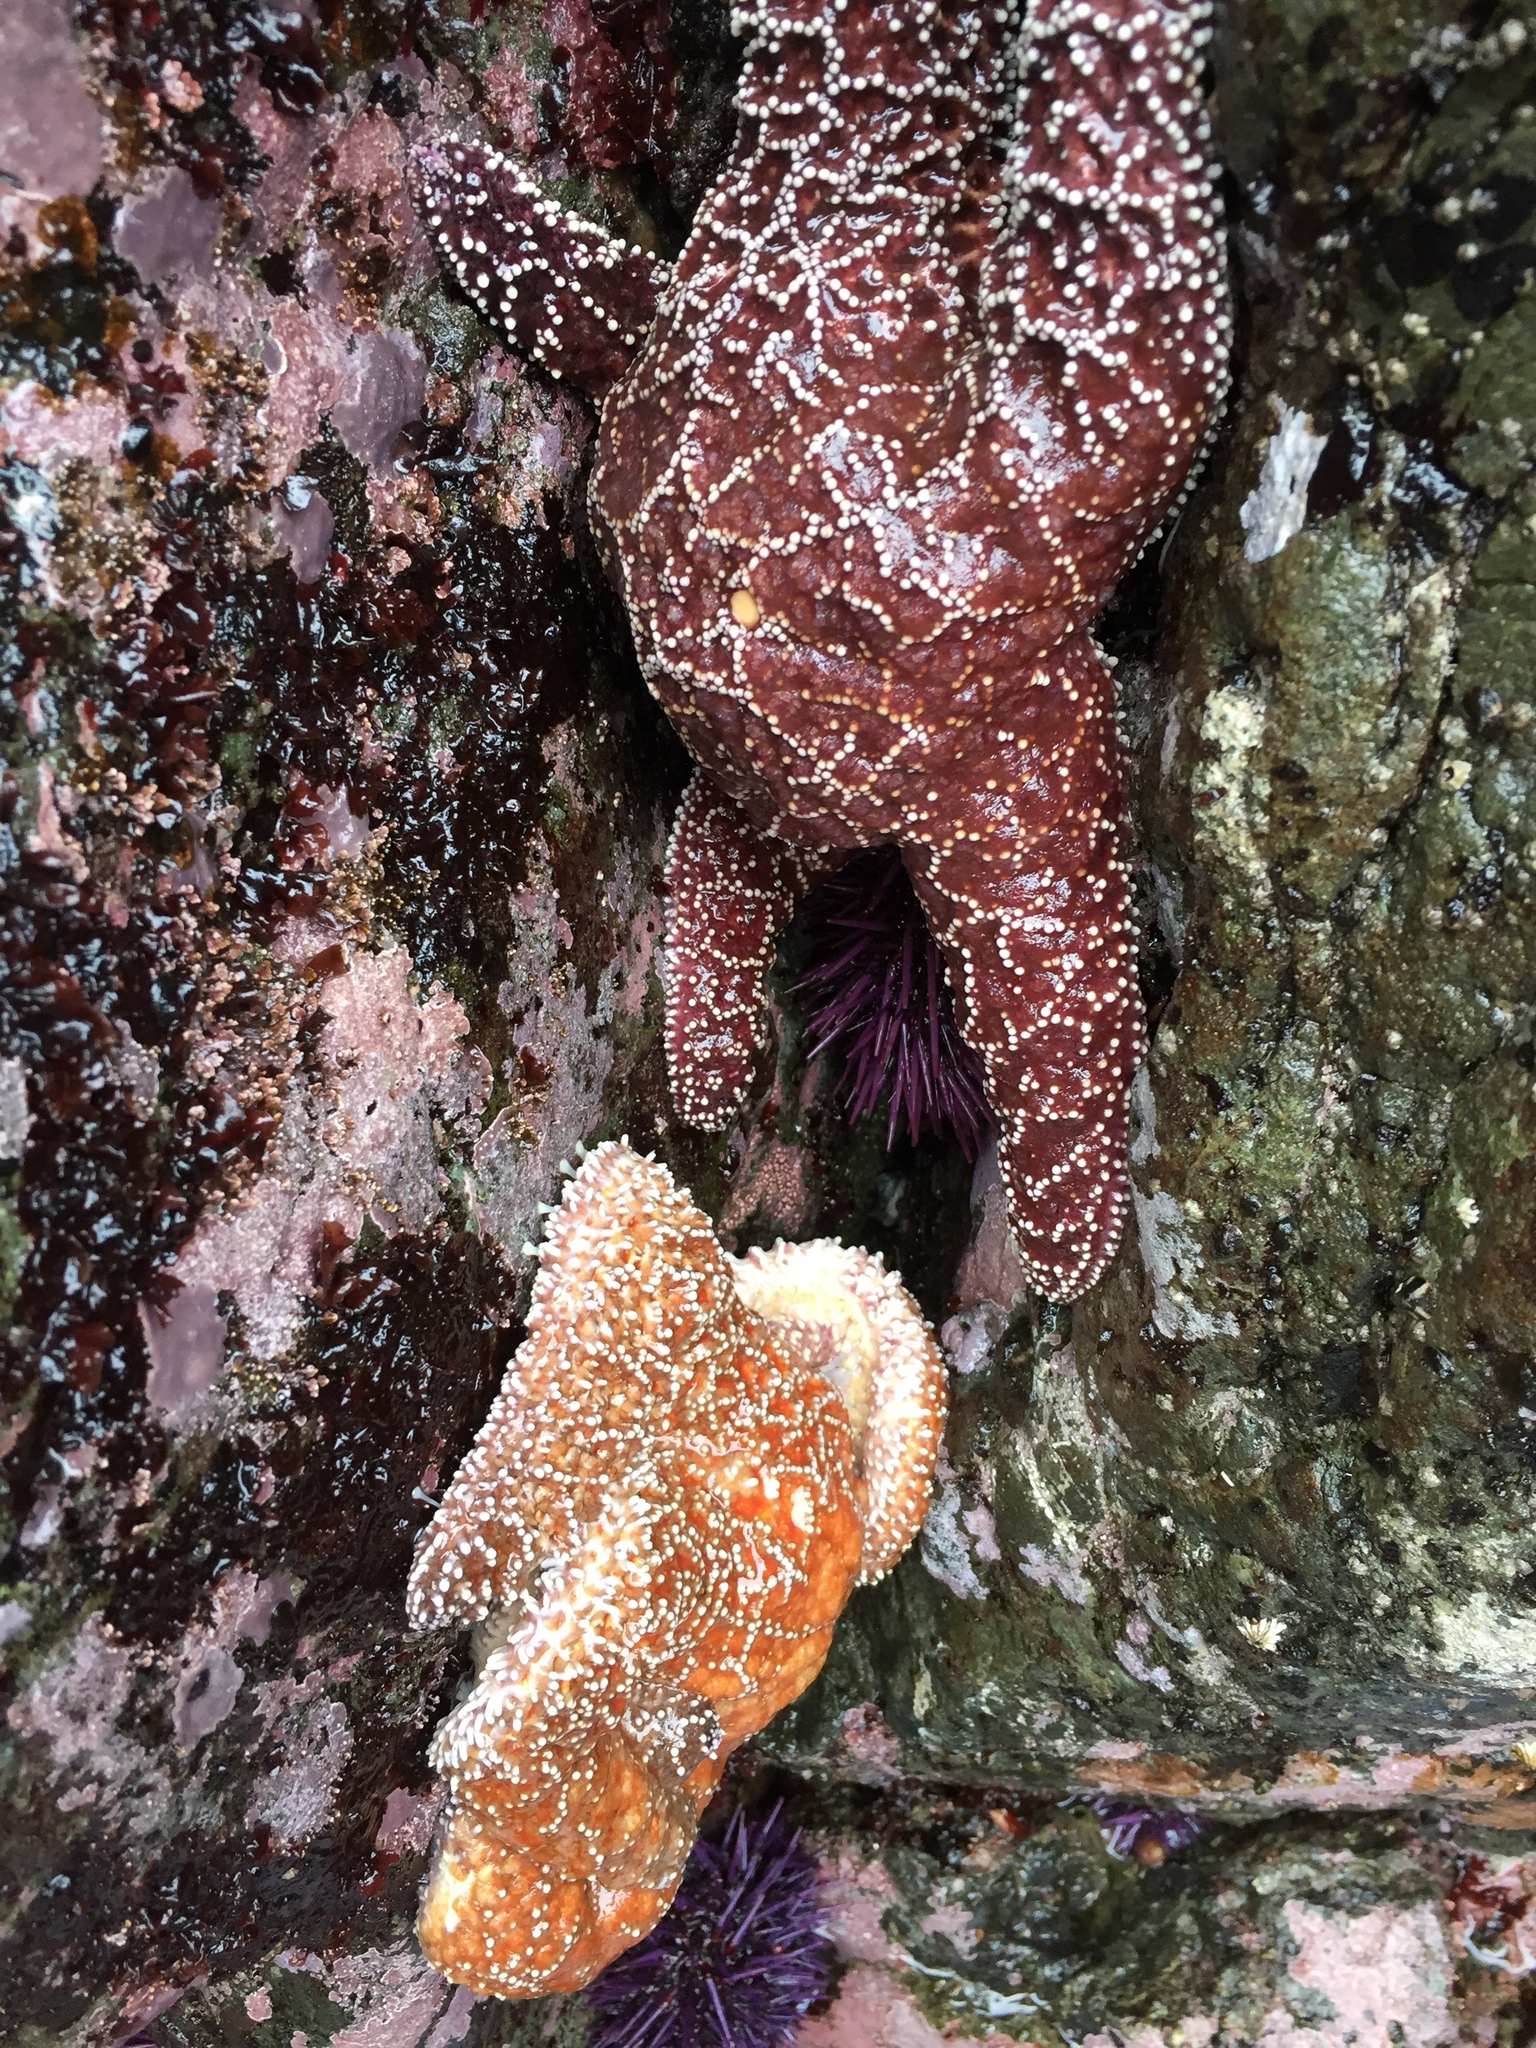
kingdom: Animalia
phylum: Echinodermata
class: Asteroidea
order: Forcipulatida
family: Asteriidae
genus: Pisaster
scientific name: Pisaster ochraceus
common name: Ochre stars
